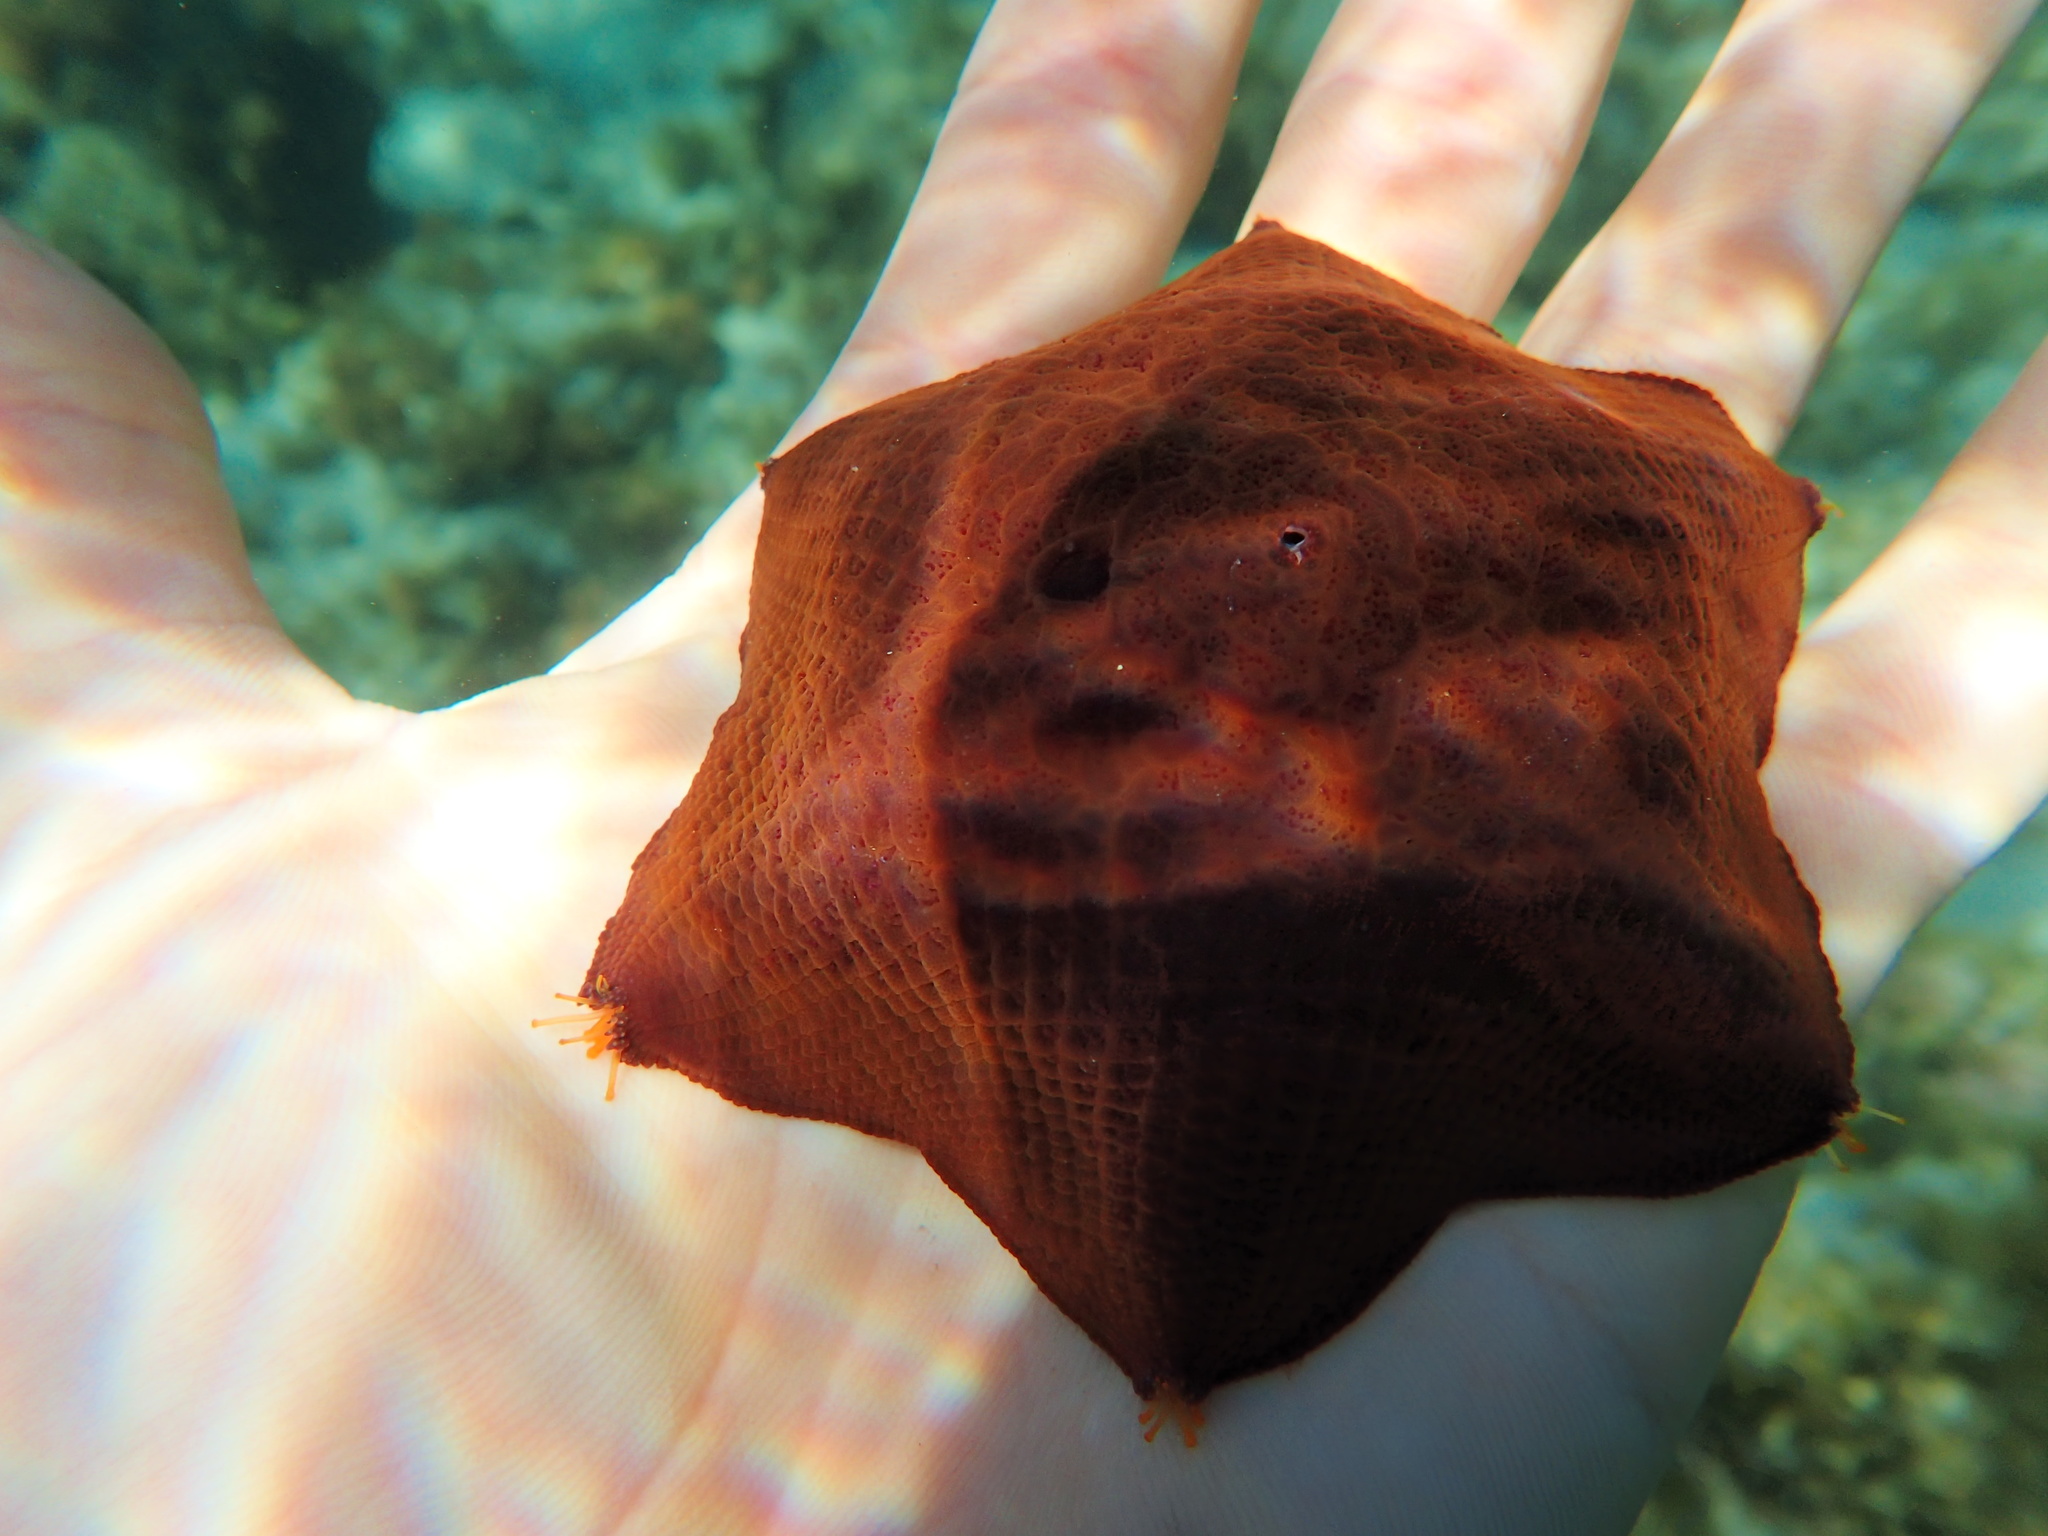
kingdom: Animalia
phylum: Echinodermata
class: Asteroidea
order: Valvatida
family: Asterinidae
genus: Meridiastra
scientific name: Meridiastra gunnii
